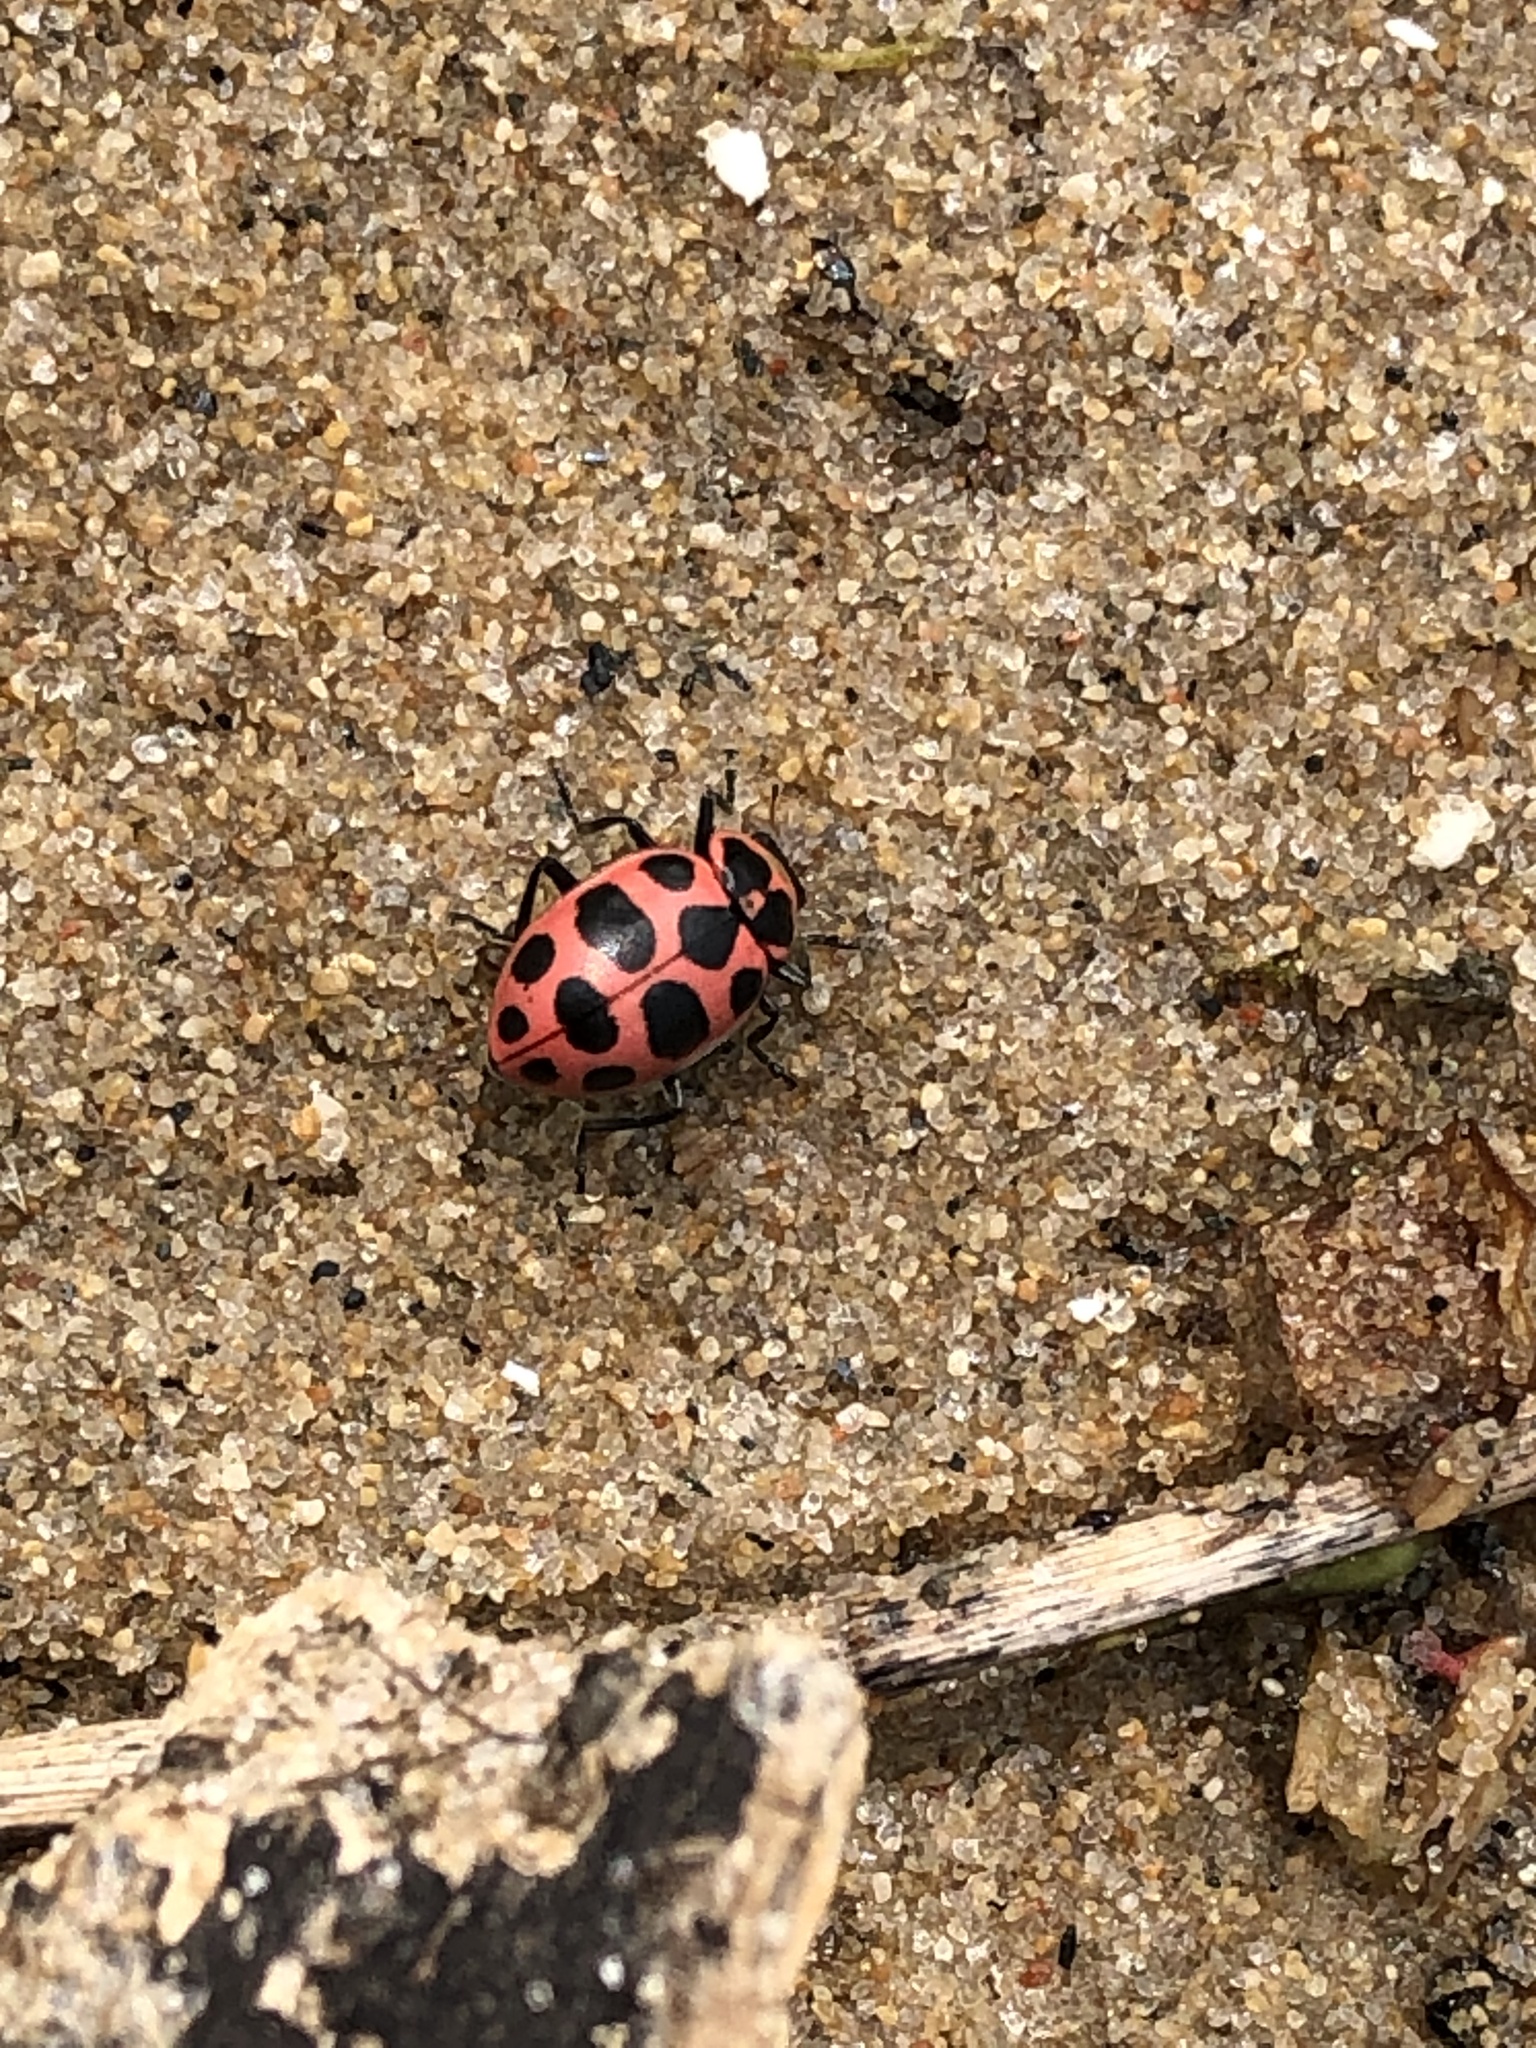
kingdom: Animalia
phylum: Arthropoda
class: Insecta
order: Coleoptera
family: Coccinellidae
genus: Coleomegilla
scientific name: Coleomegilla maculata
